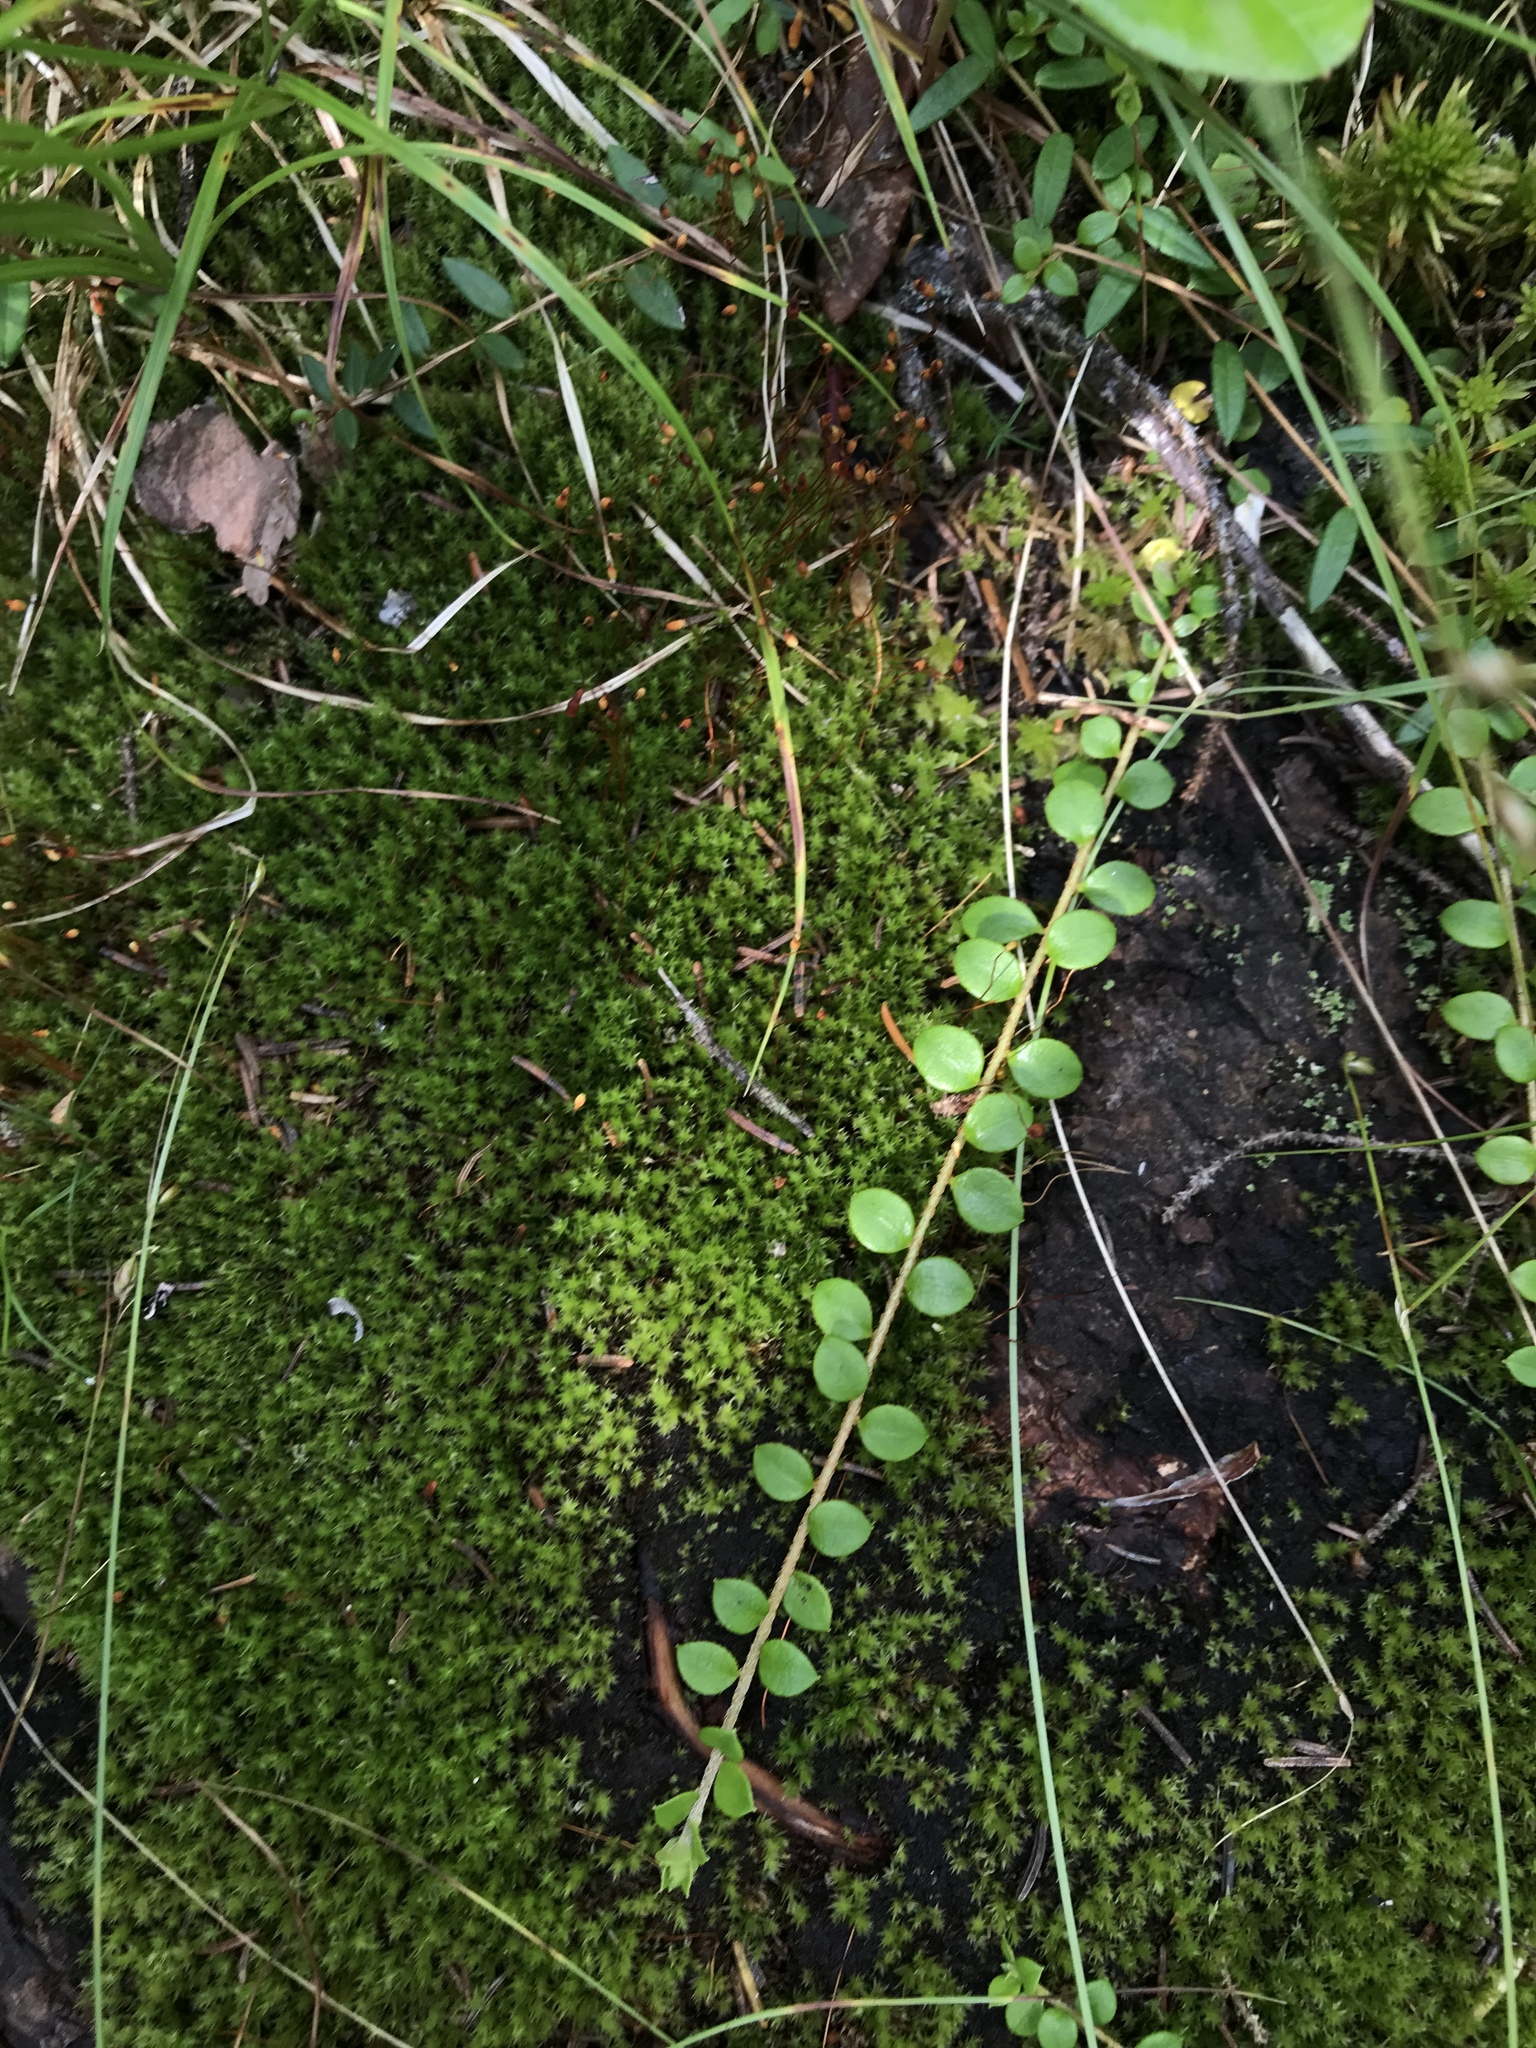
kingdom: Plantae
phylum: Tracheophyta
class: Magnoliopsida
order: Ericales
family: Ericaceae
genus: Gaultheria
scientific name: Gaultheria hispidula
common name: Cancer wintergreen
